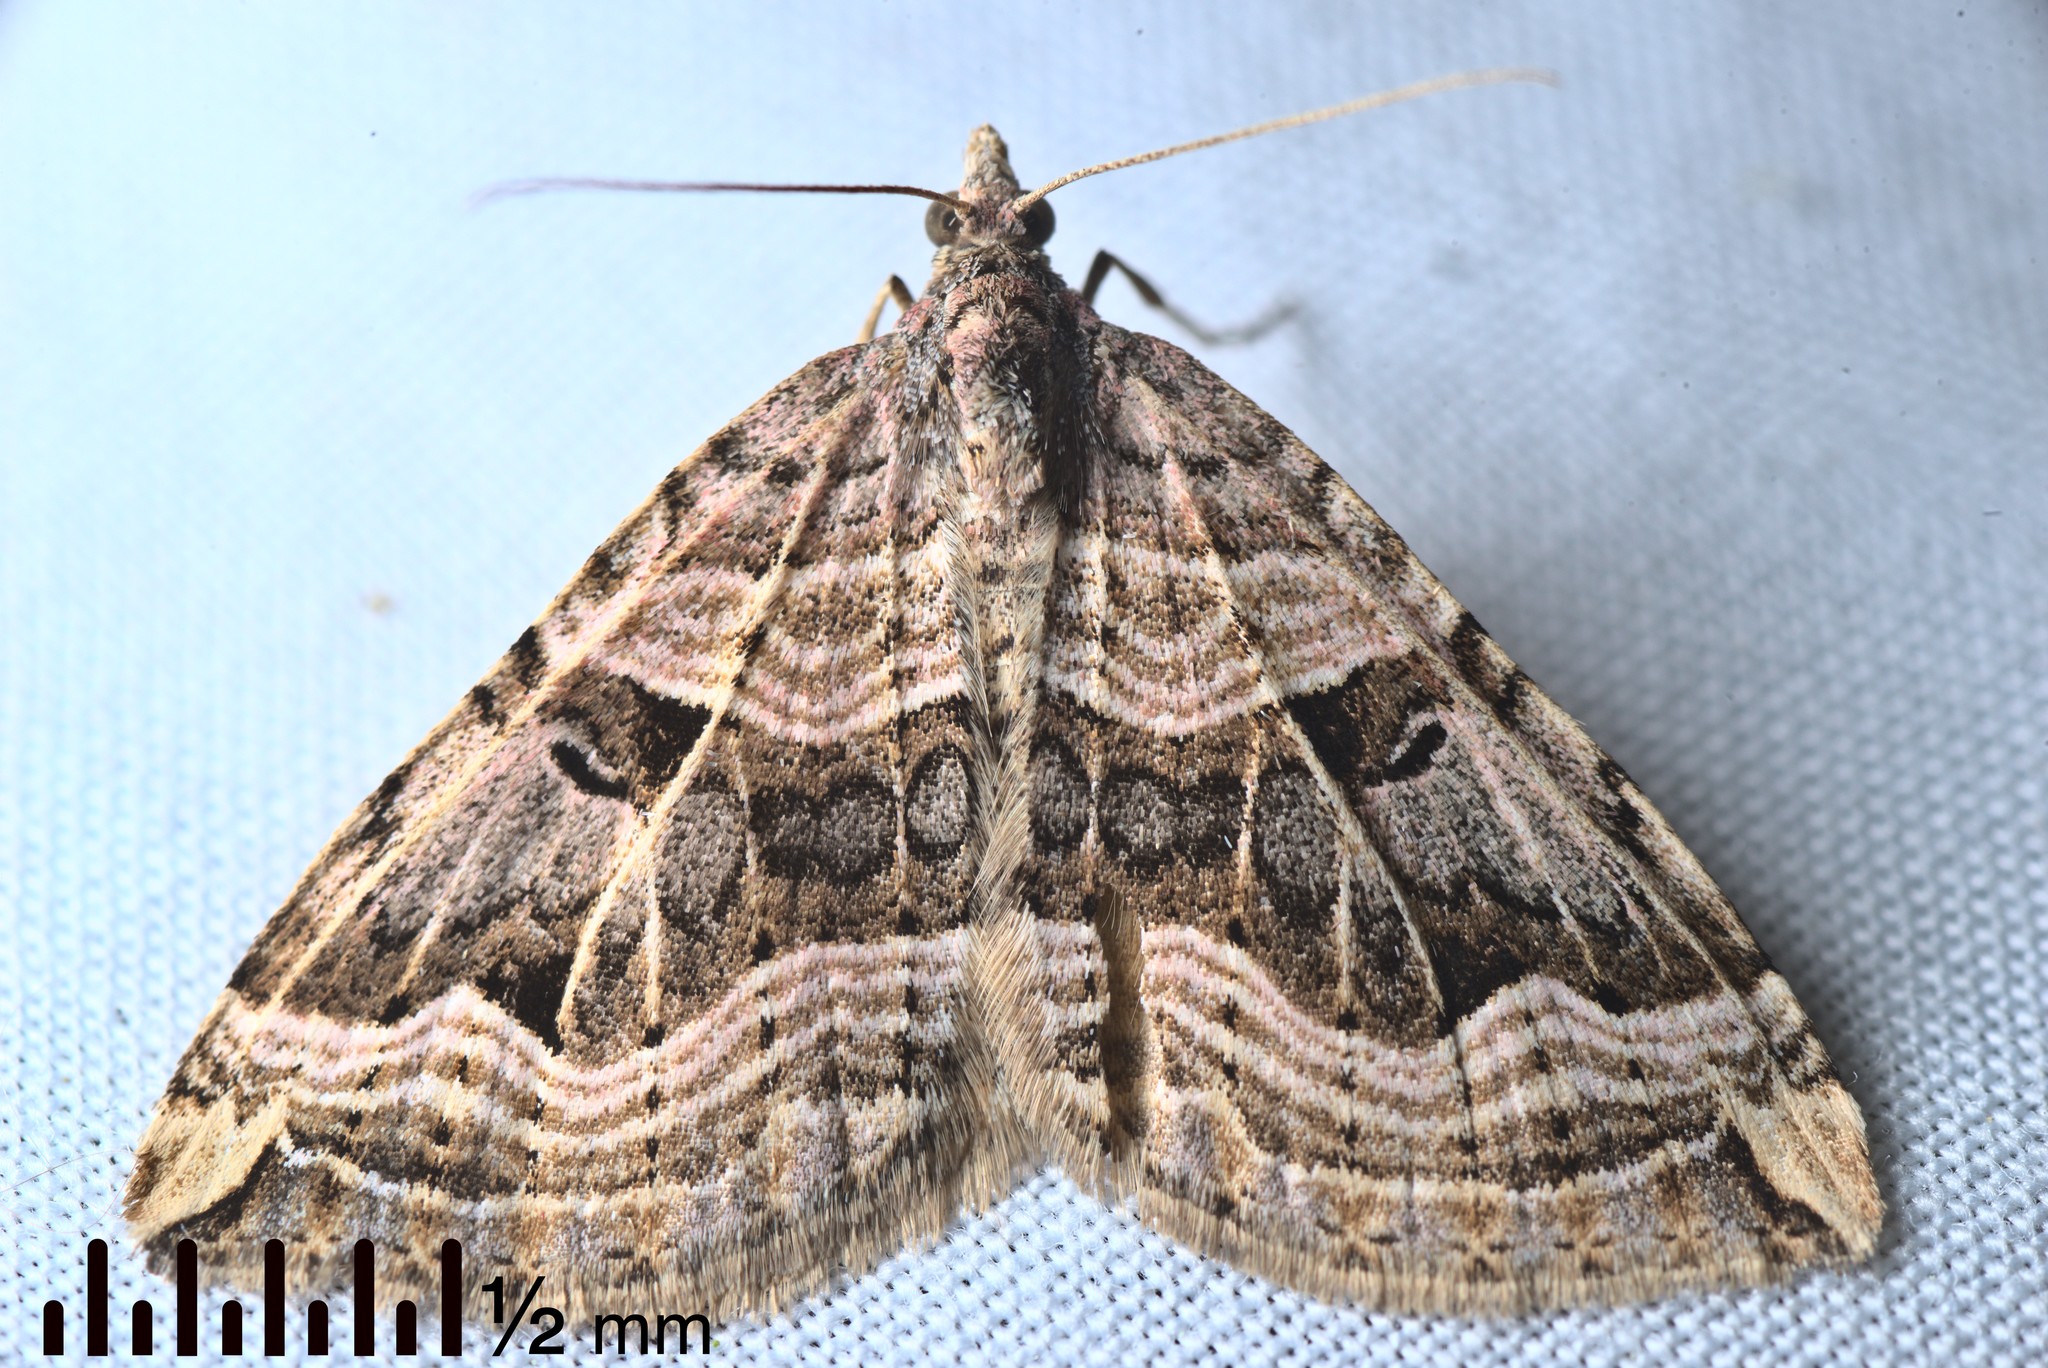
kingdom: Animalia
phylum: Arthropoda
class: Insecta
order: Lepidoptera
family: Geometridae
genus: Xanthorhoe
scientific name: Xanthorhoe semifissata
